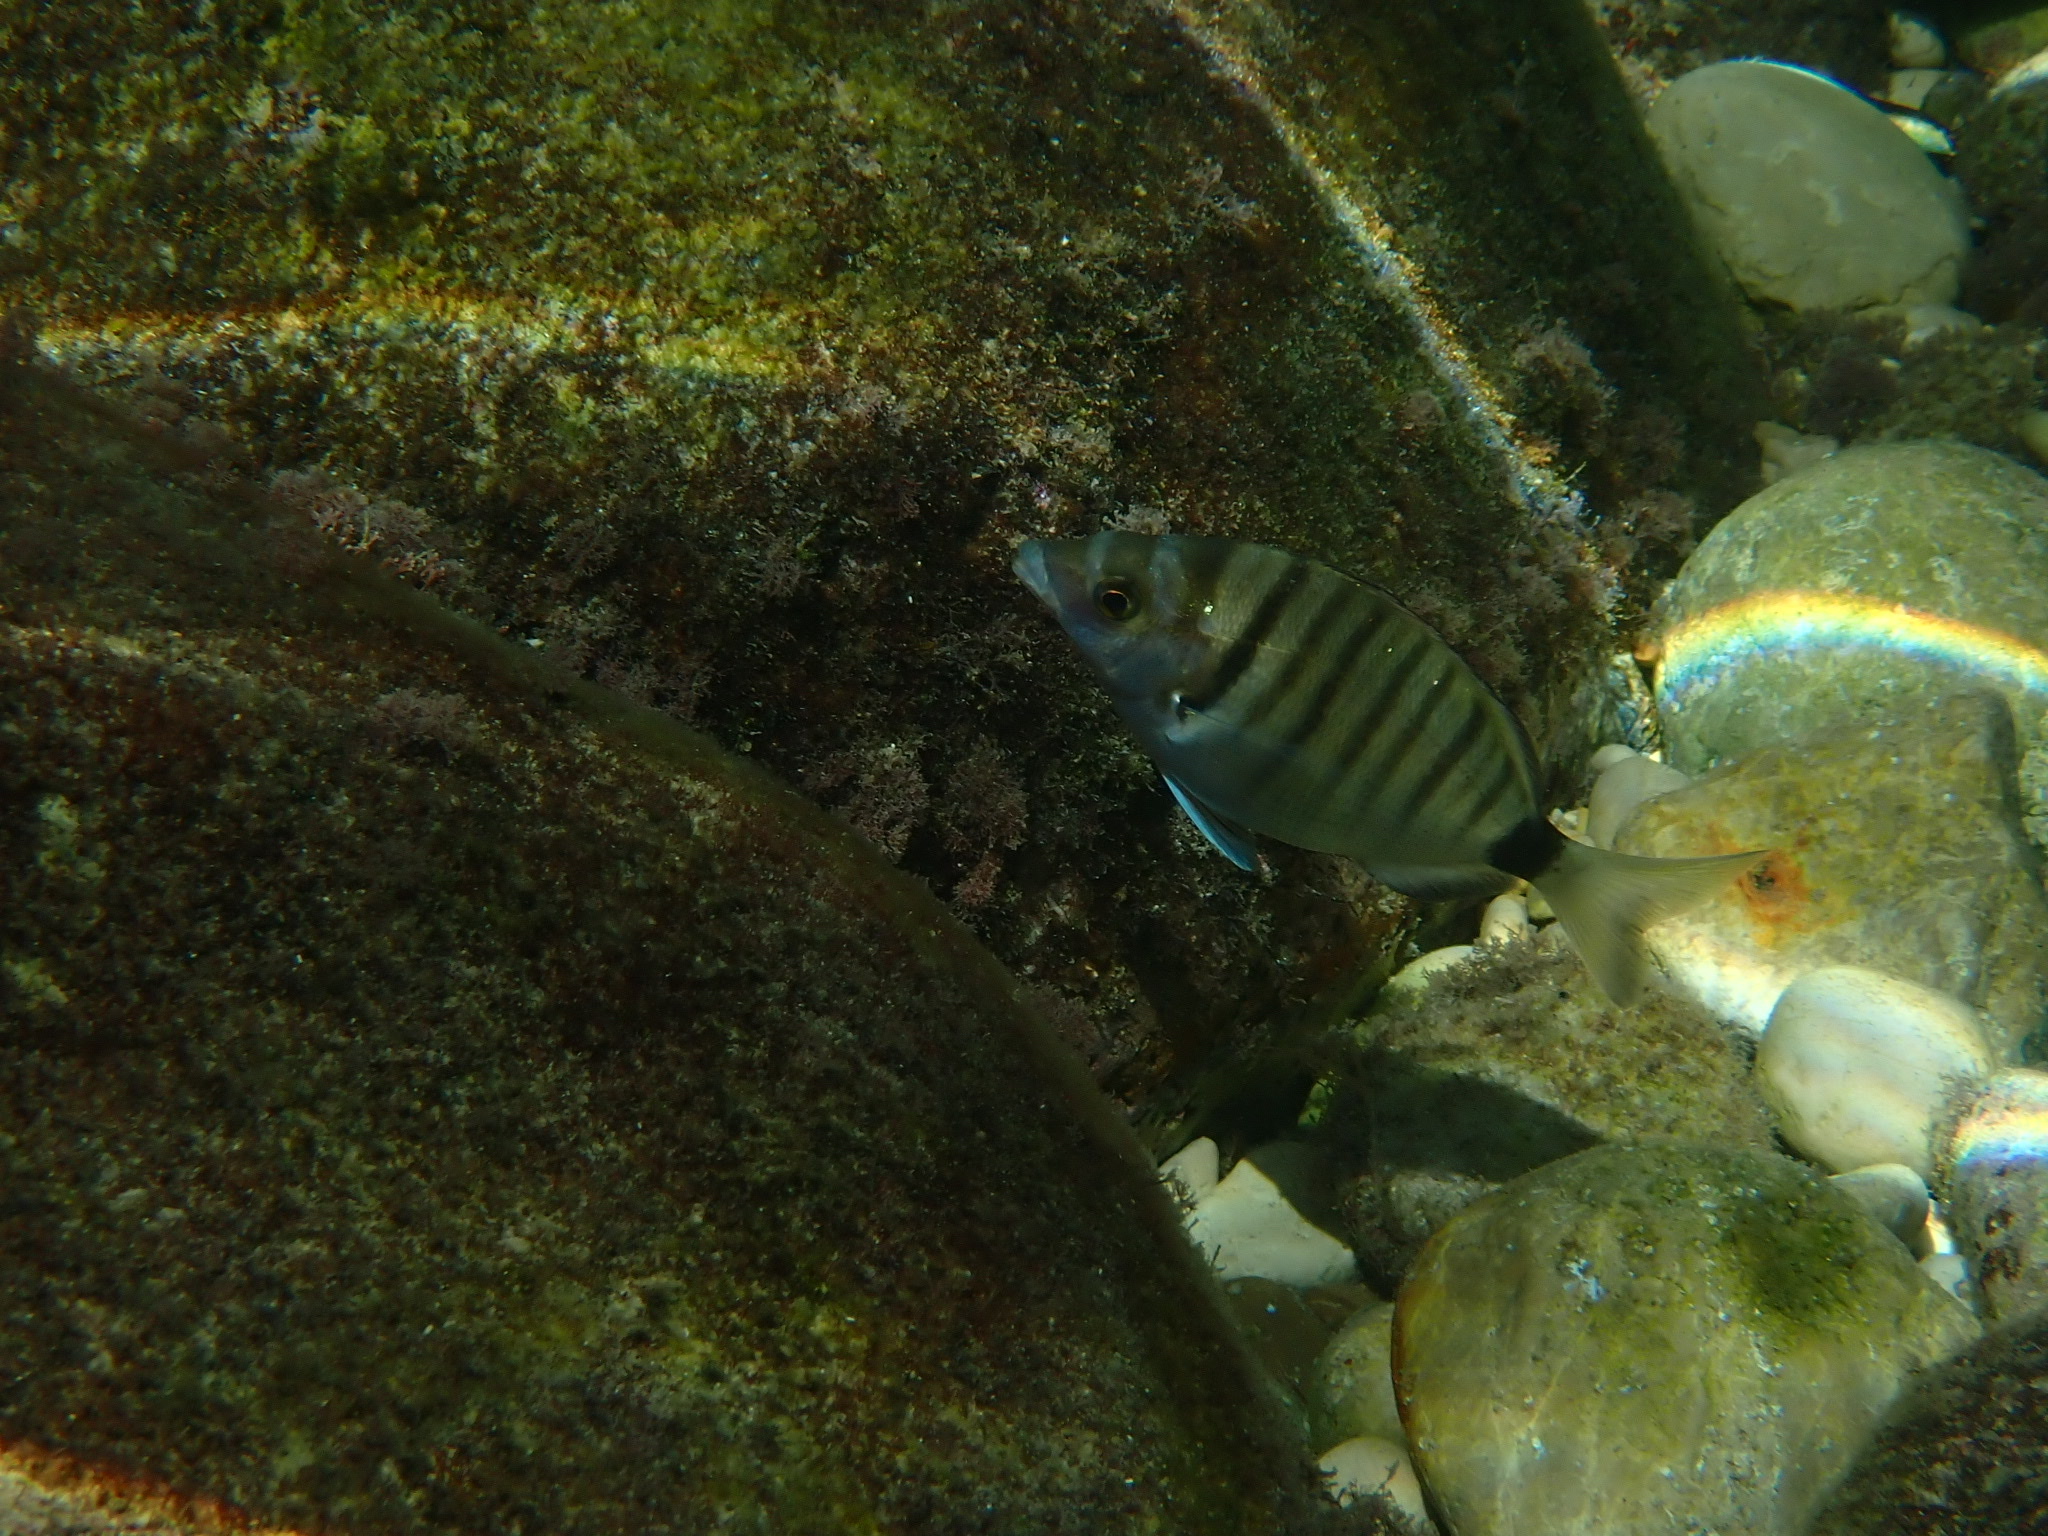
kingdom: Animalia
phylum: Chordata
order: Perciformes
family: Sparidae
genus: Diplodus
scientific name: Diplodus puntazzo
